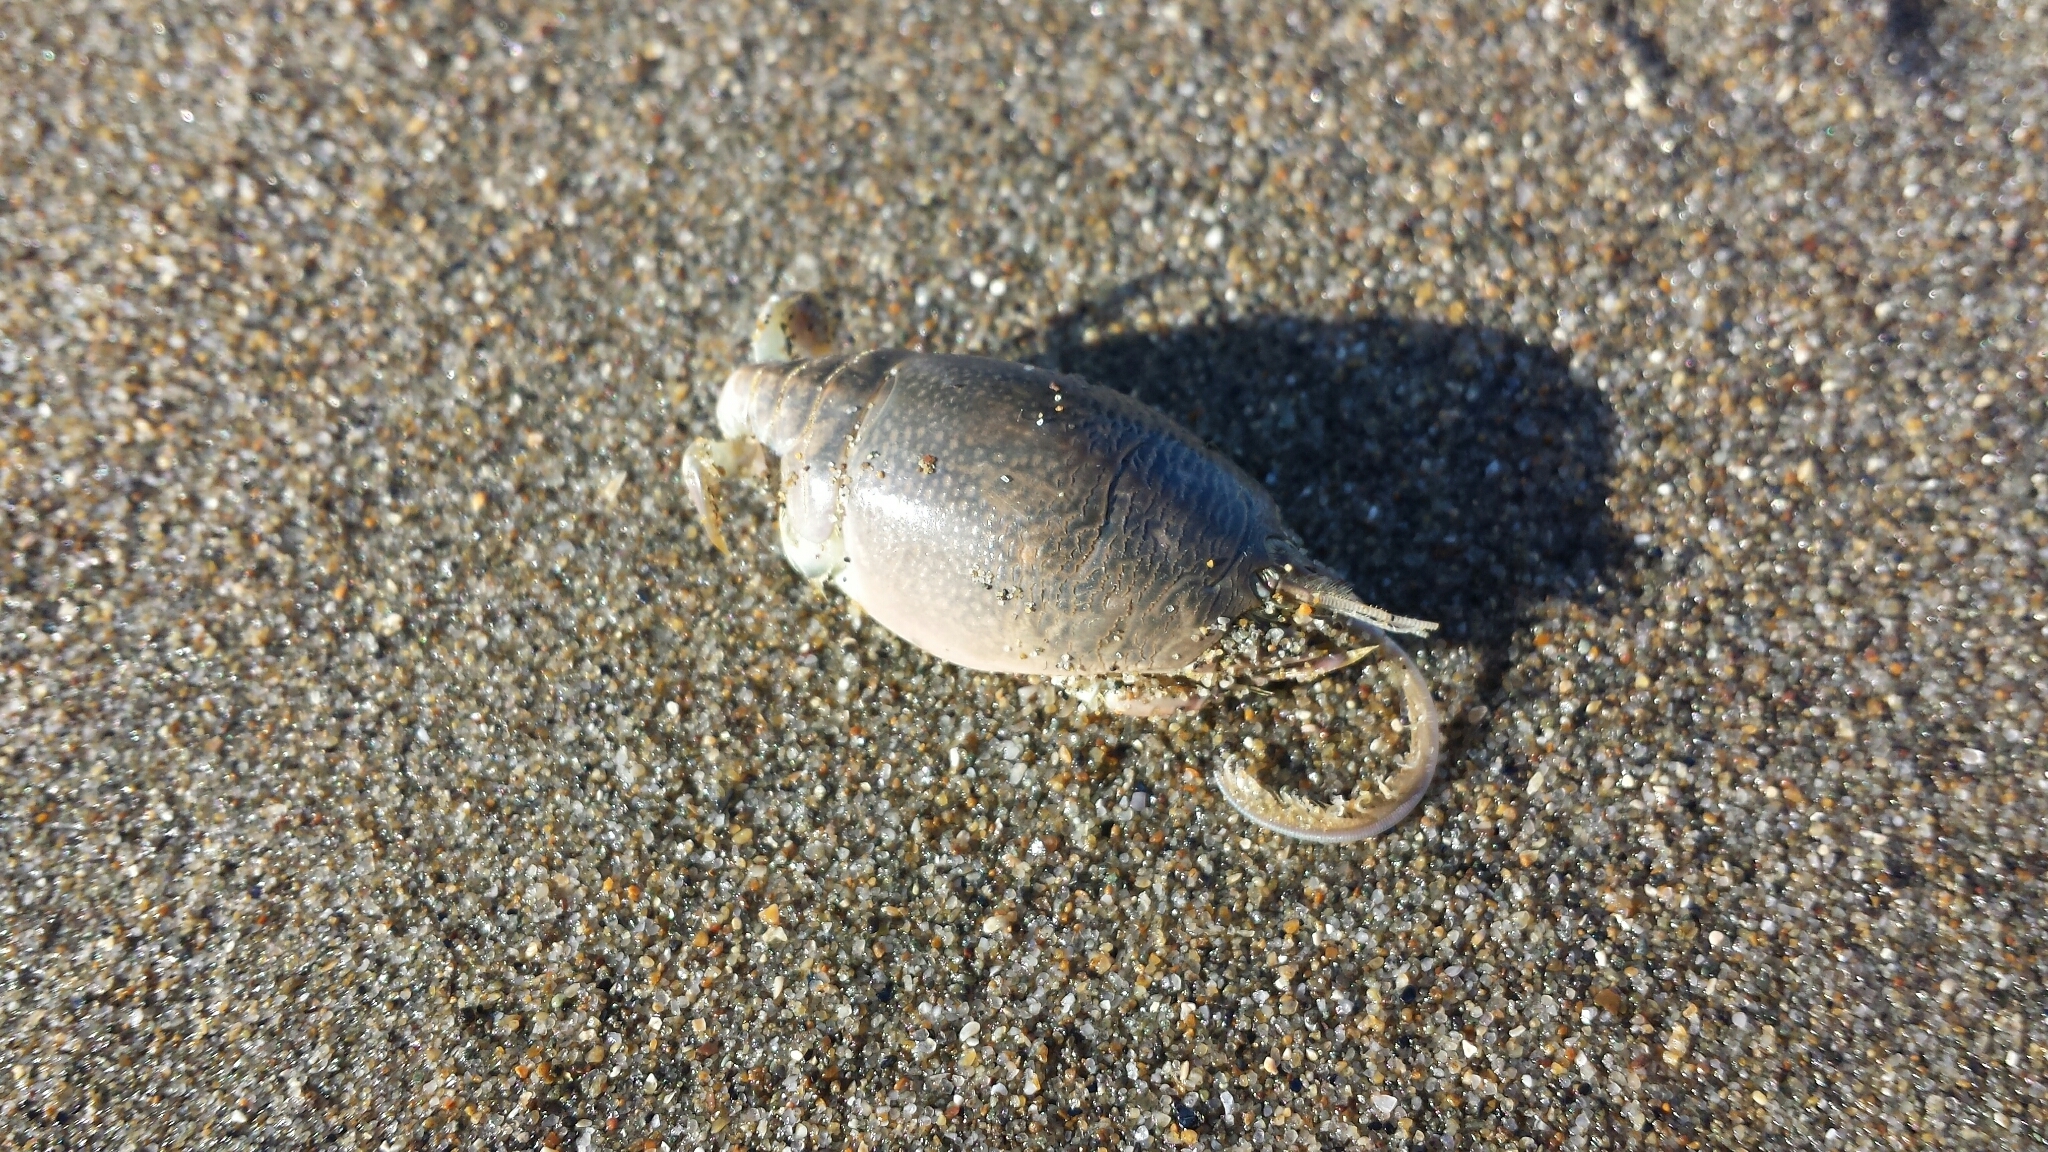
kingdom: Animalia
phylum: Arthropoda
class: Malacostraca
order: Decapoda
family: Hippidae
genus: Emerita
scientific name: Emerita analoga
